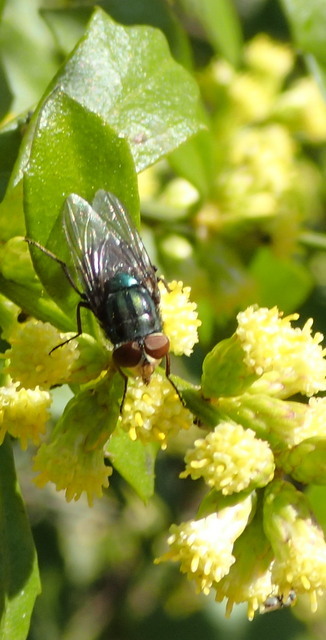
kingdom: Animalia
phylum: Arthropoda
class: Insecta
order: Diptera
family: Calliphoridae
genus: Cochliomyia
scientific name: Cochliomyia macellaria
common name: Secondary screwworm
